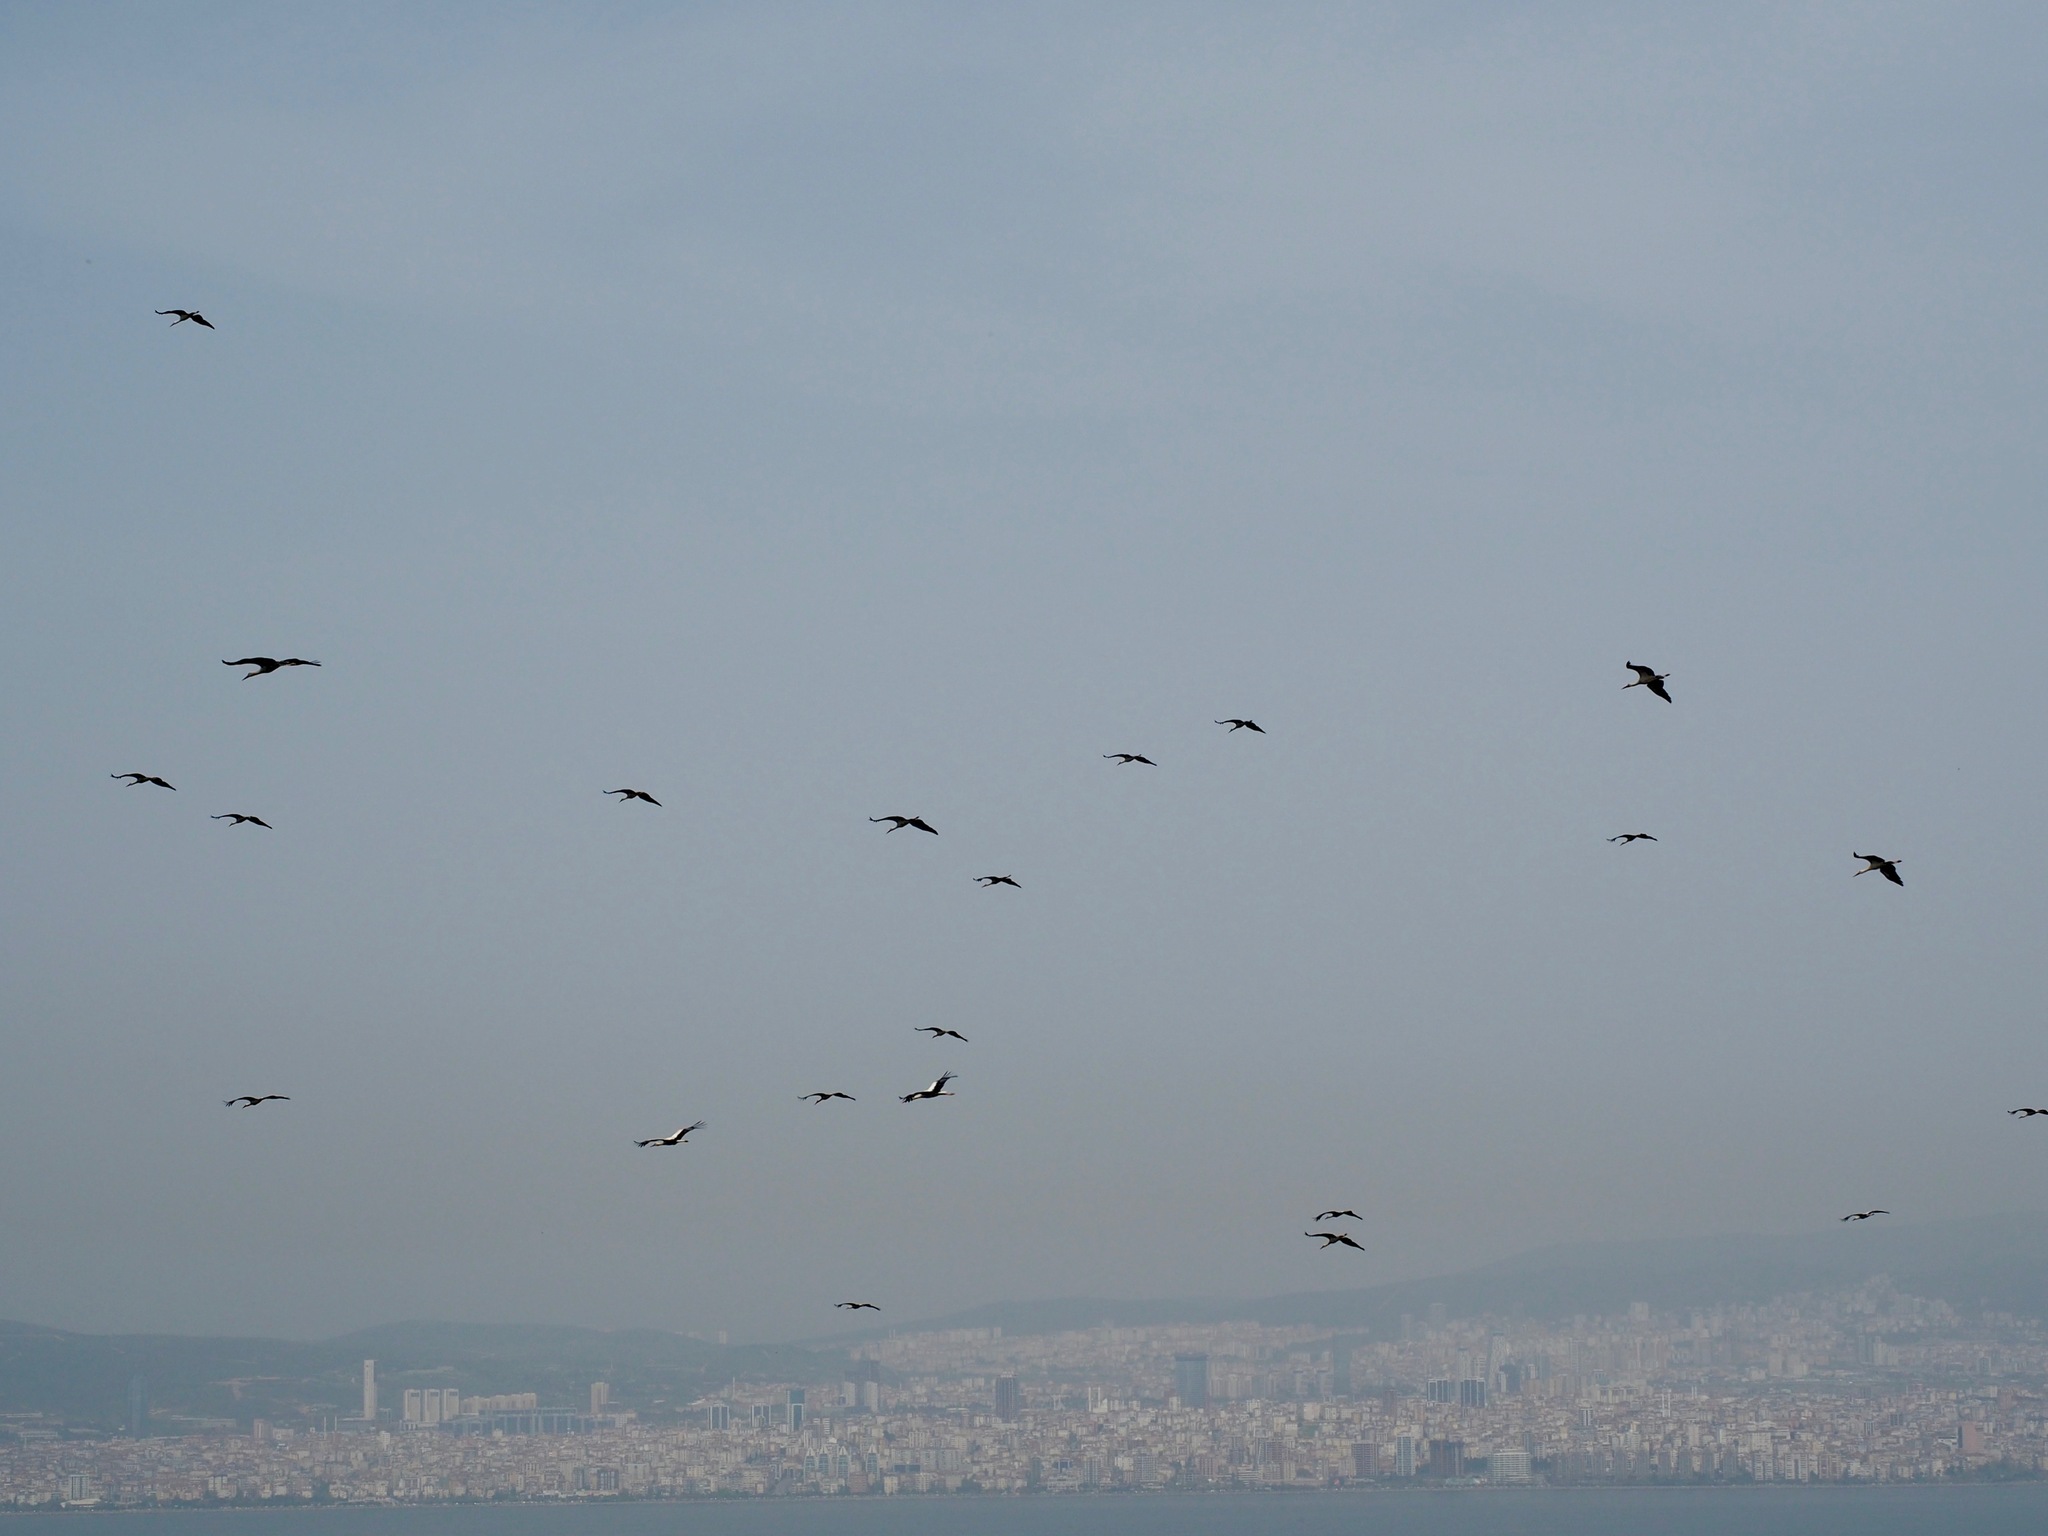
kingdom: Animalia
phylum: Chordata
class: Aves
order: Ciconiiformes
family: Ciconiidae
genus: Ciconia
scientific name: Ciconia ciconia
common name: White stork
